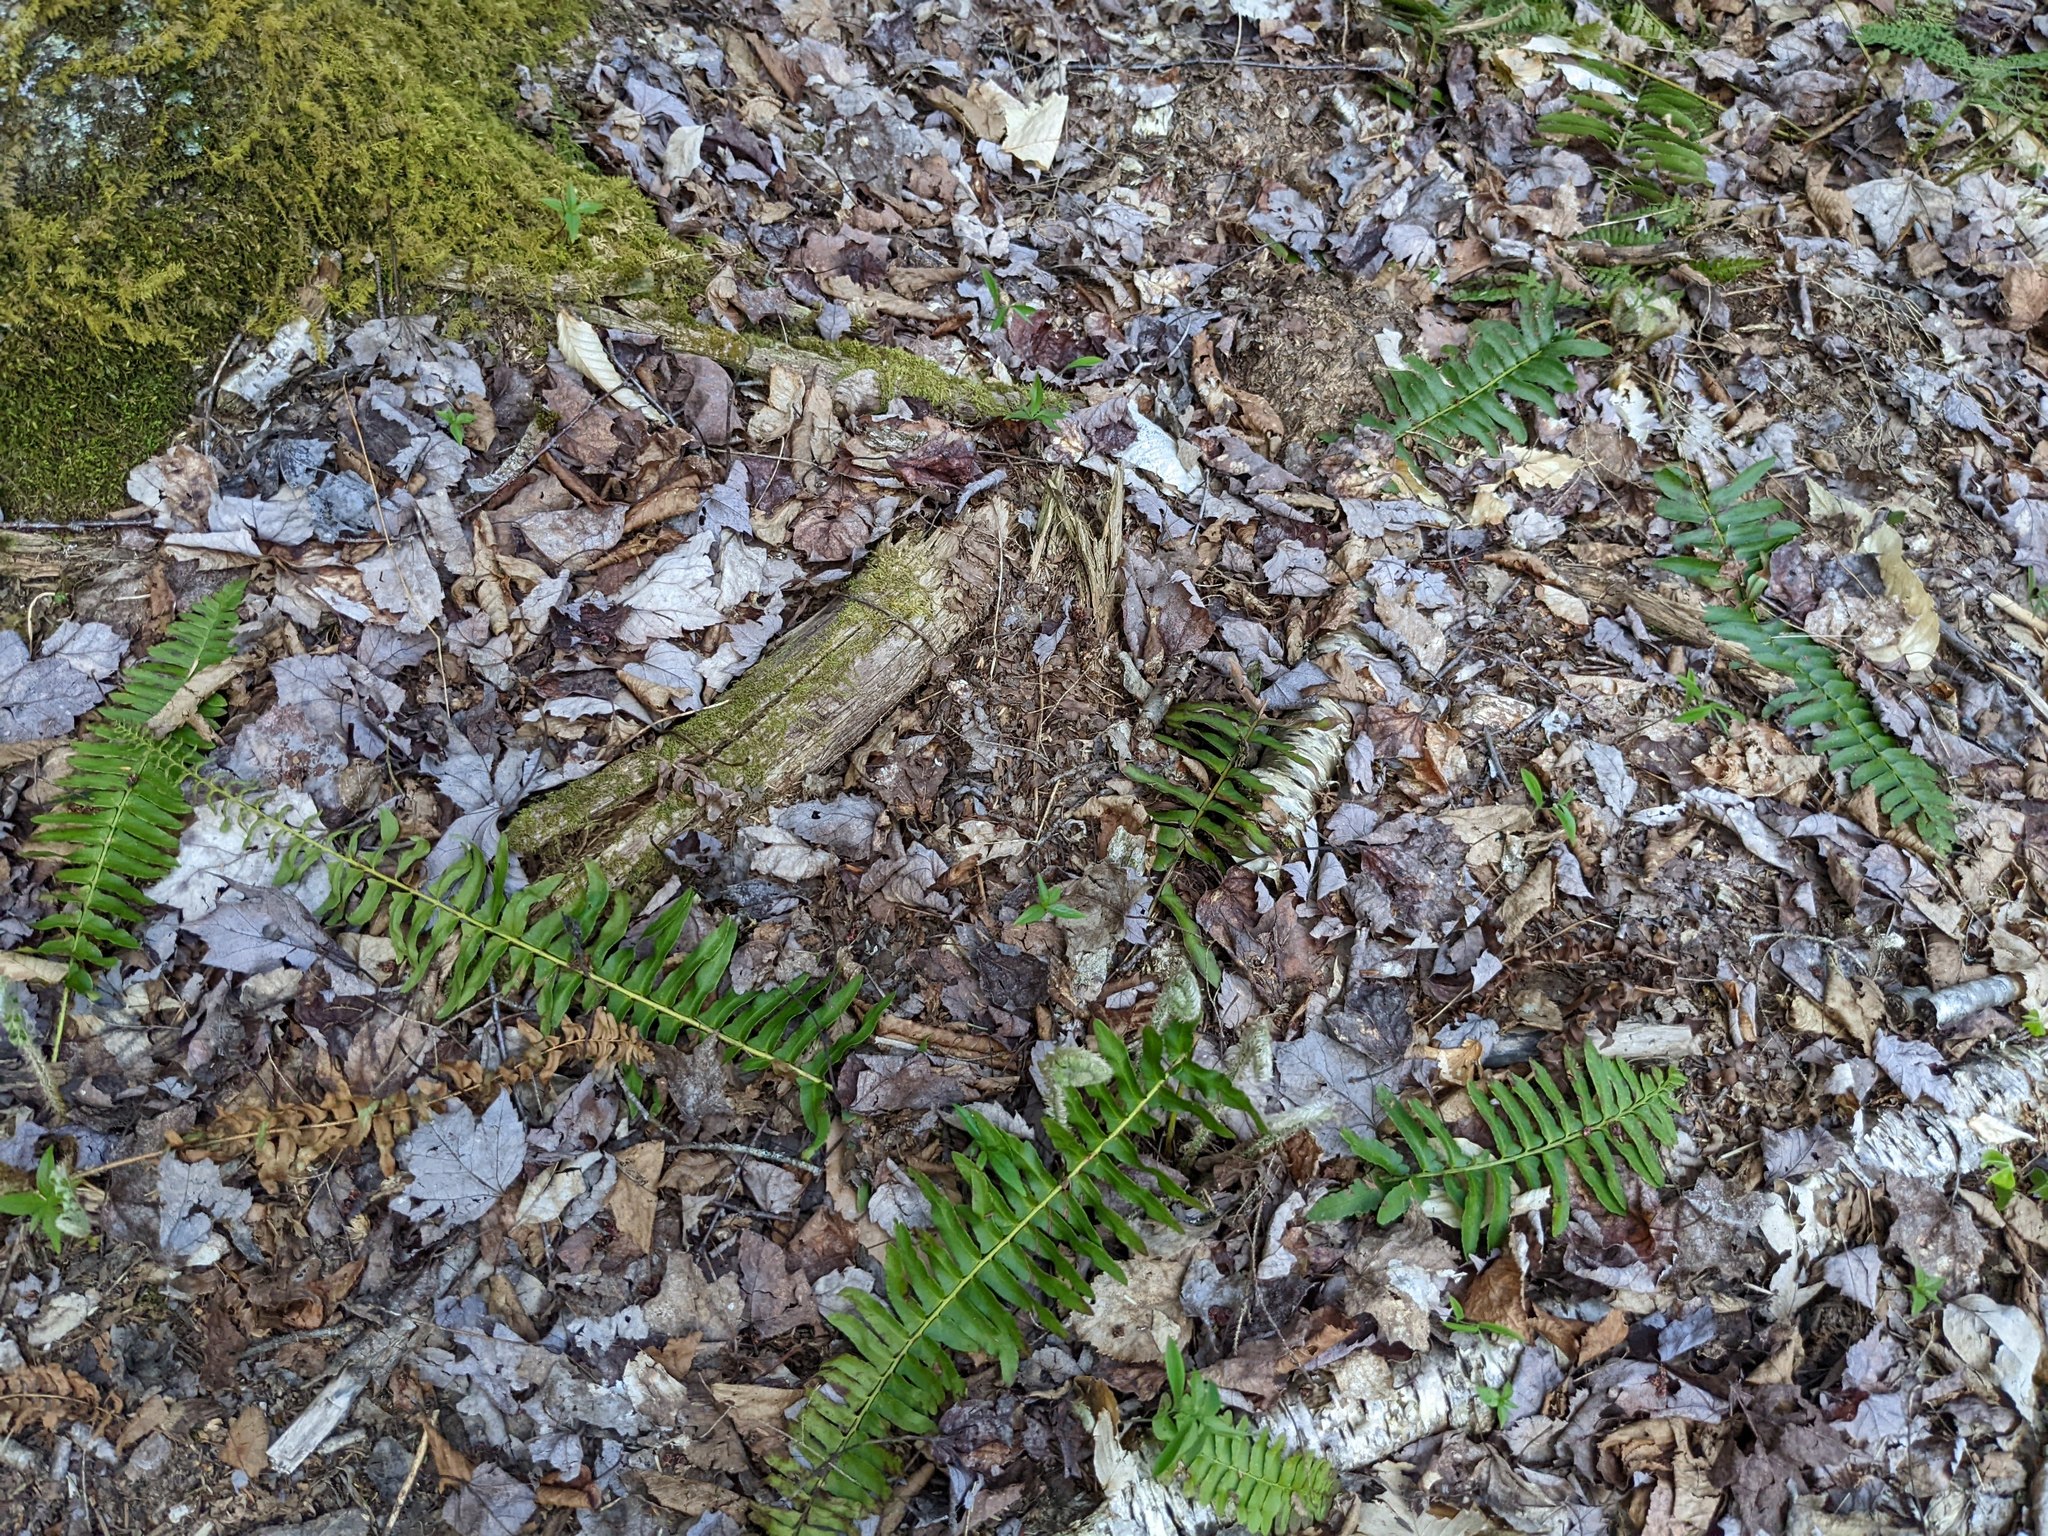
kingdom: Plantae
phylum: Tracheophyta
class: Polypodiopsida
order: Polypodiales
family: Dryopteridaceae
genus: Polystichum
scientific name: Polystichum acrostichoides
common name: Christmas fern
